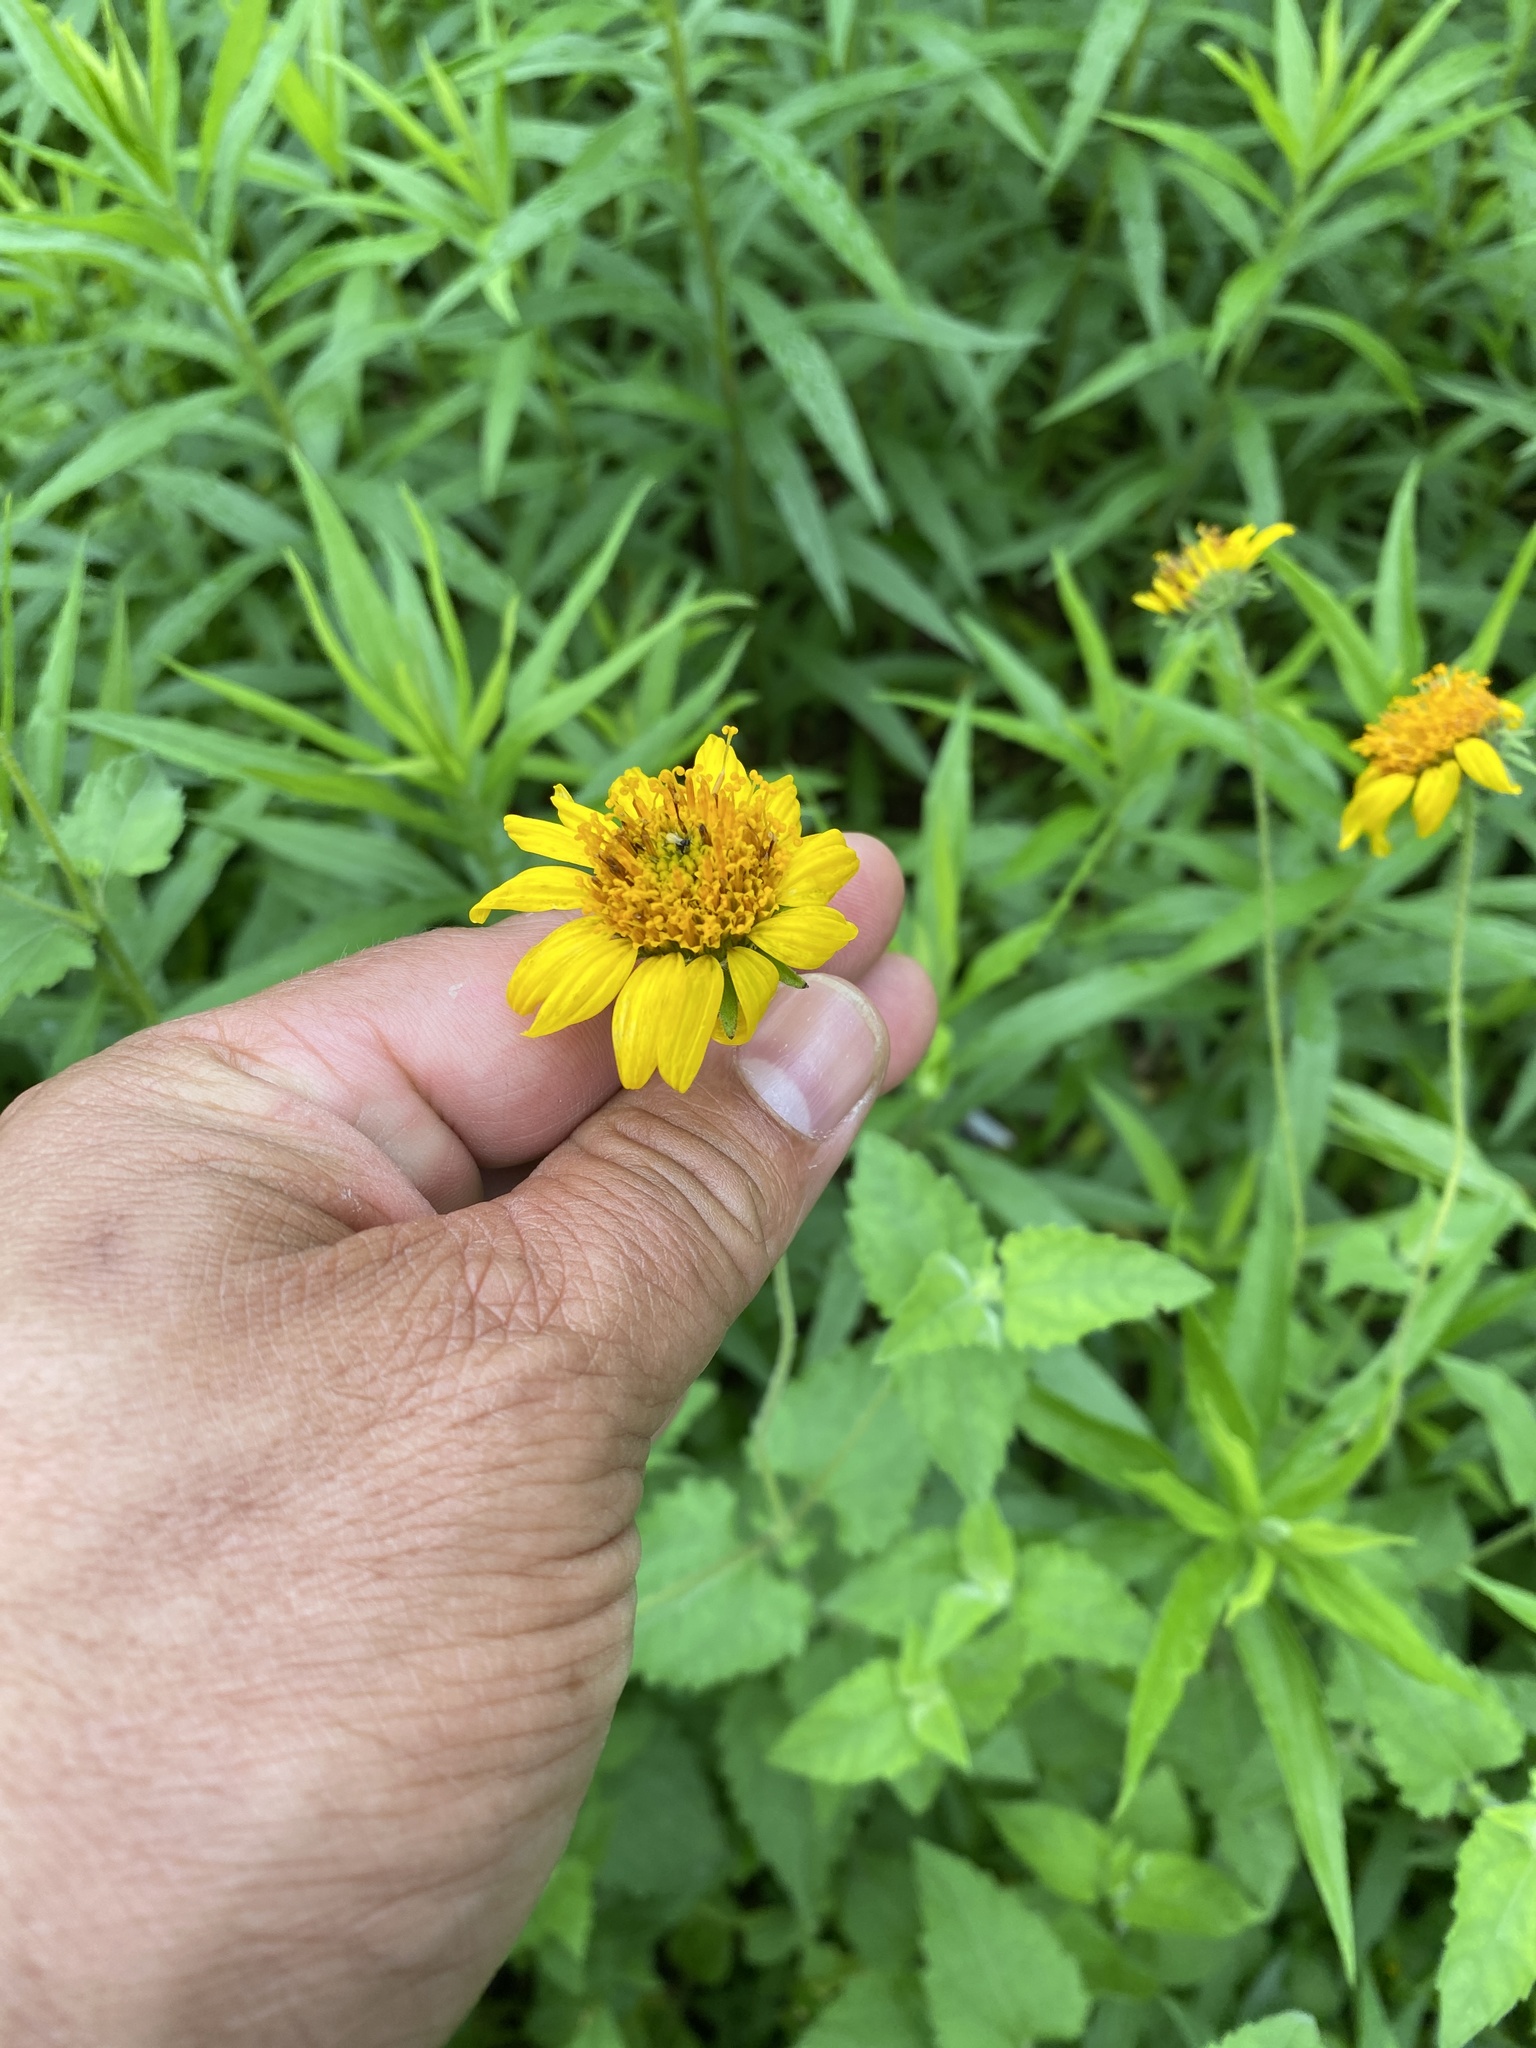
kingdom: Plantae
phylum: Tracheophyta
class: Magnoliopsida
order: Asterales
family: Asteraceae
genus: Verbesina
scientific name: Verbesina encelioides
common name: Golden crownbeard
